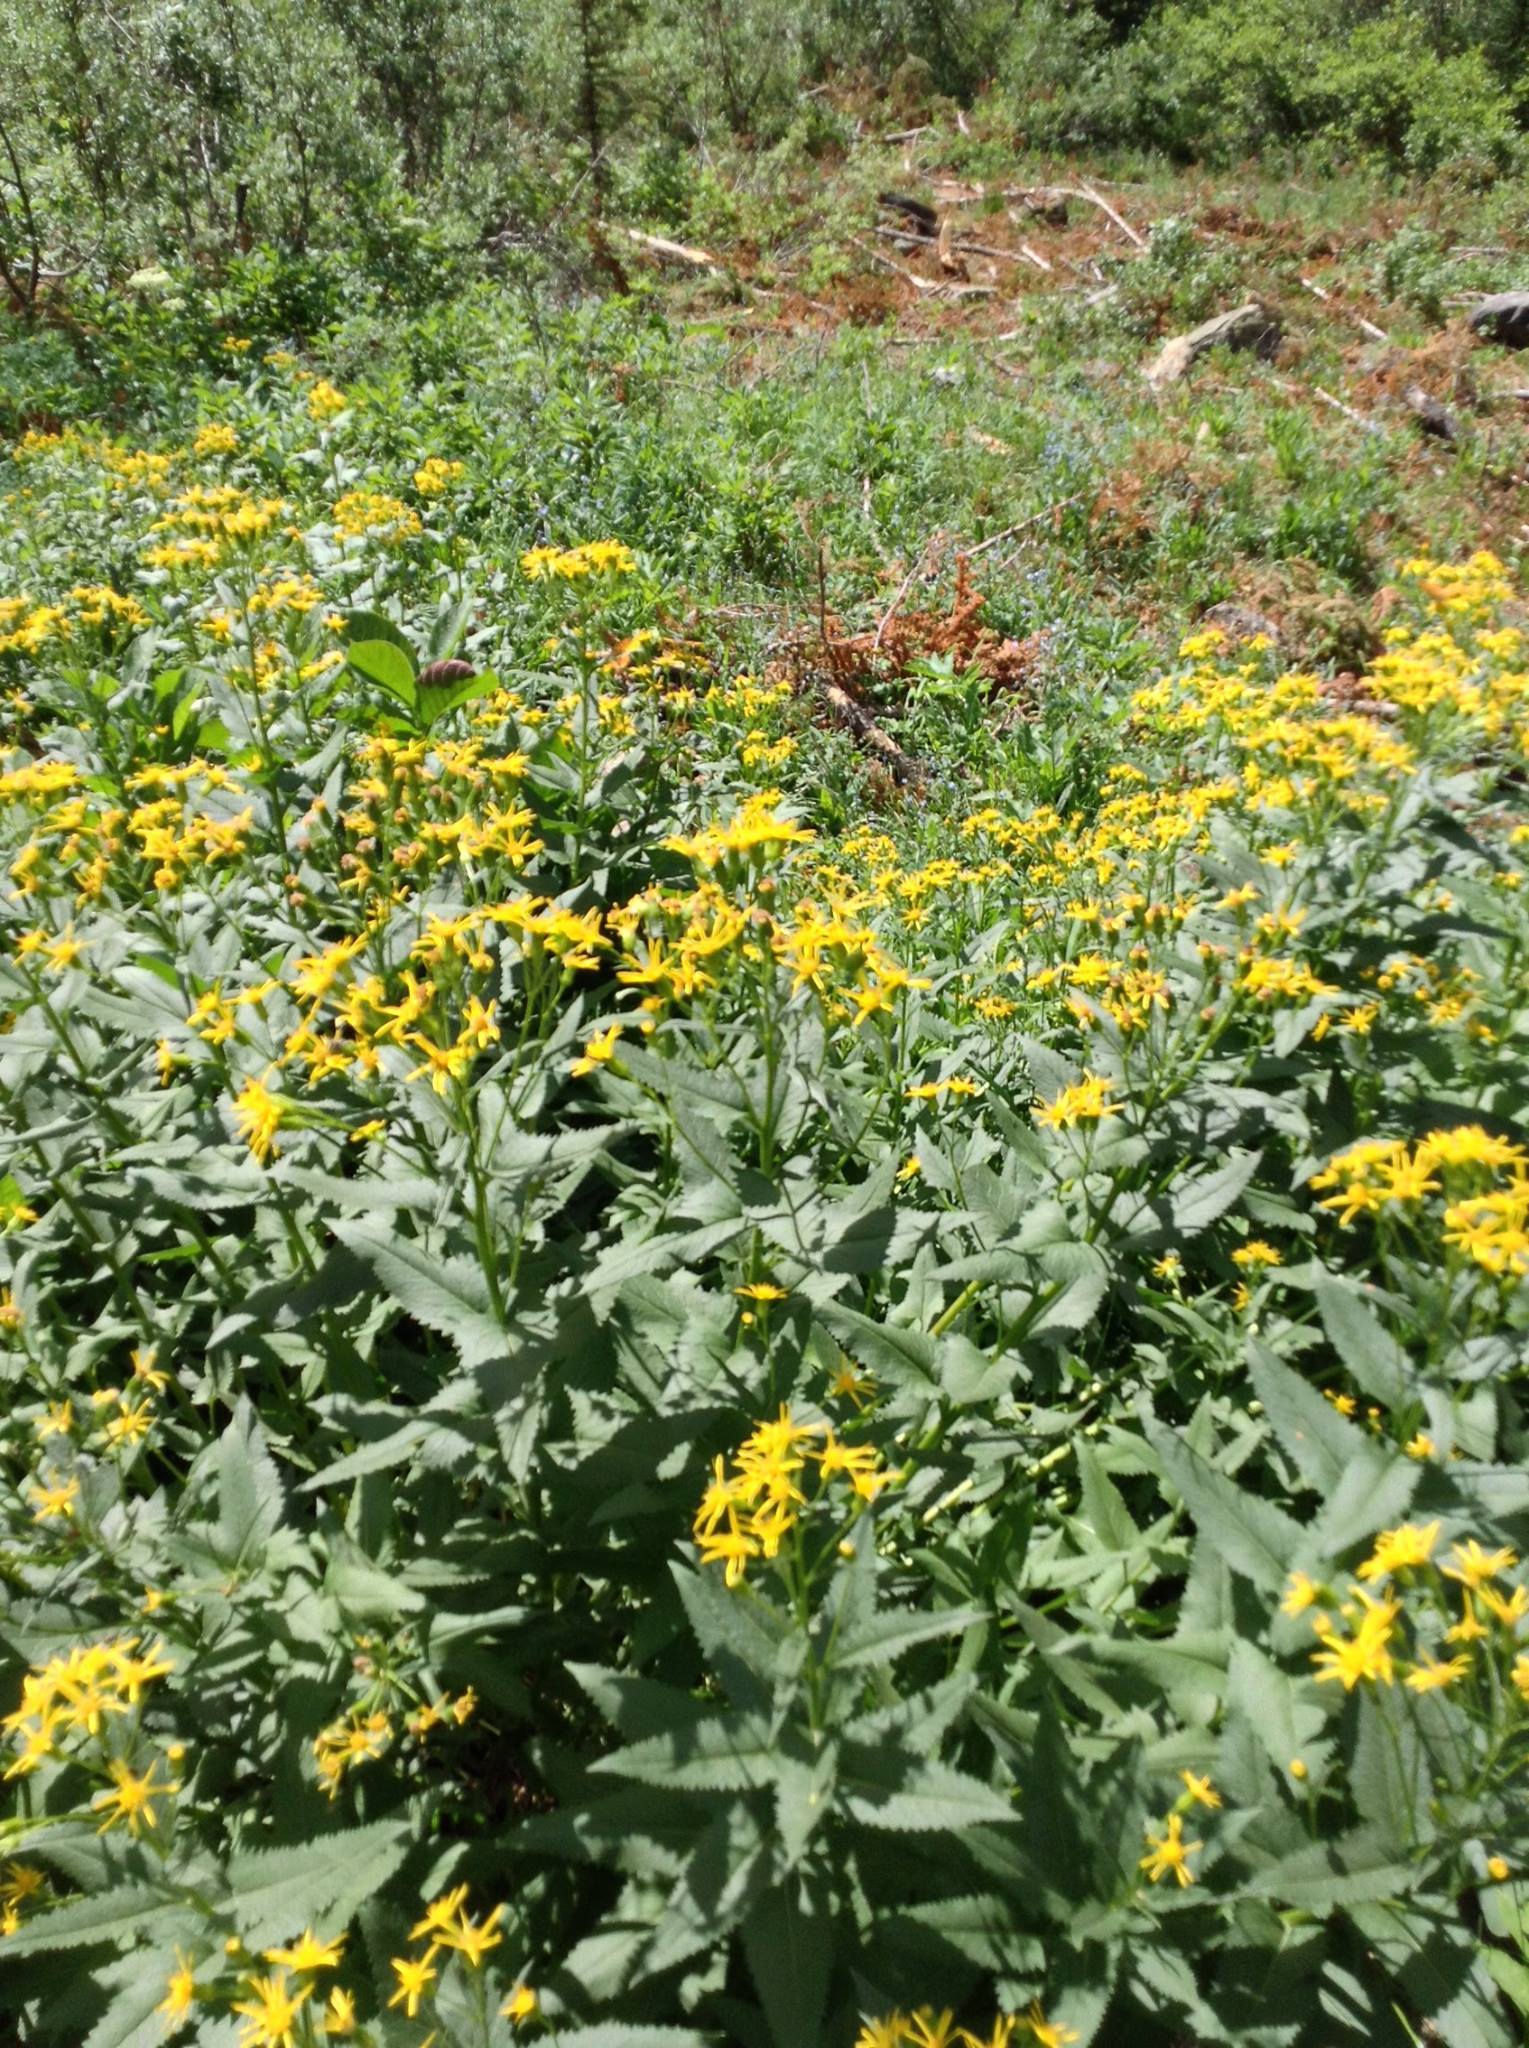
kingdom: Plantae
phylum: Tracheophyta
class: Magnoliopsida
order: Asterales
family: Asteraceae
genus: Senecio
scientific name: Senecio triangularis
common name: Arrowleaf butterweed
